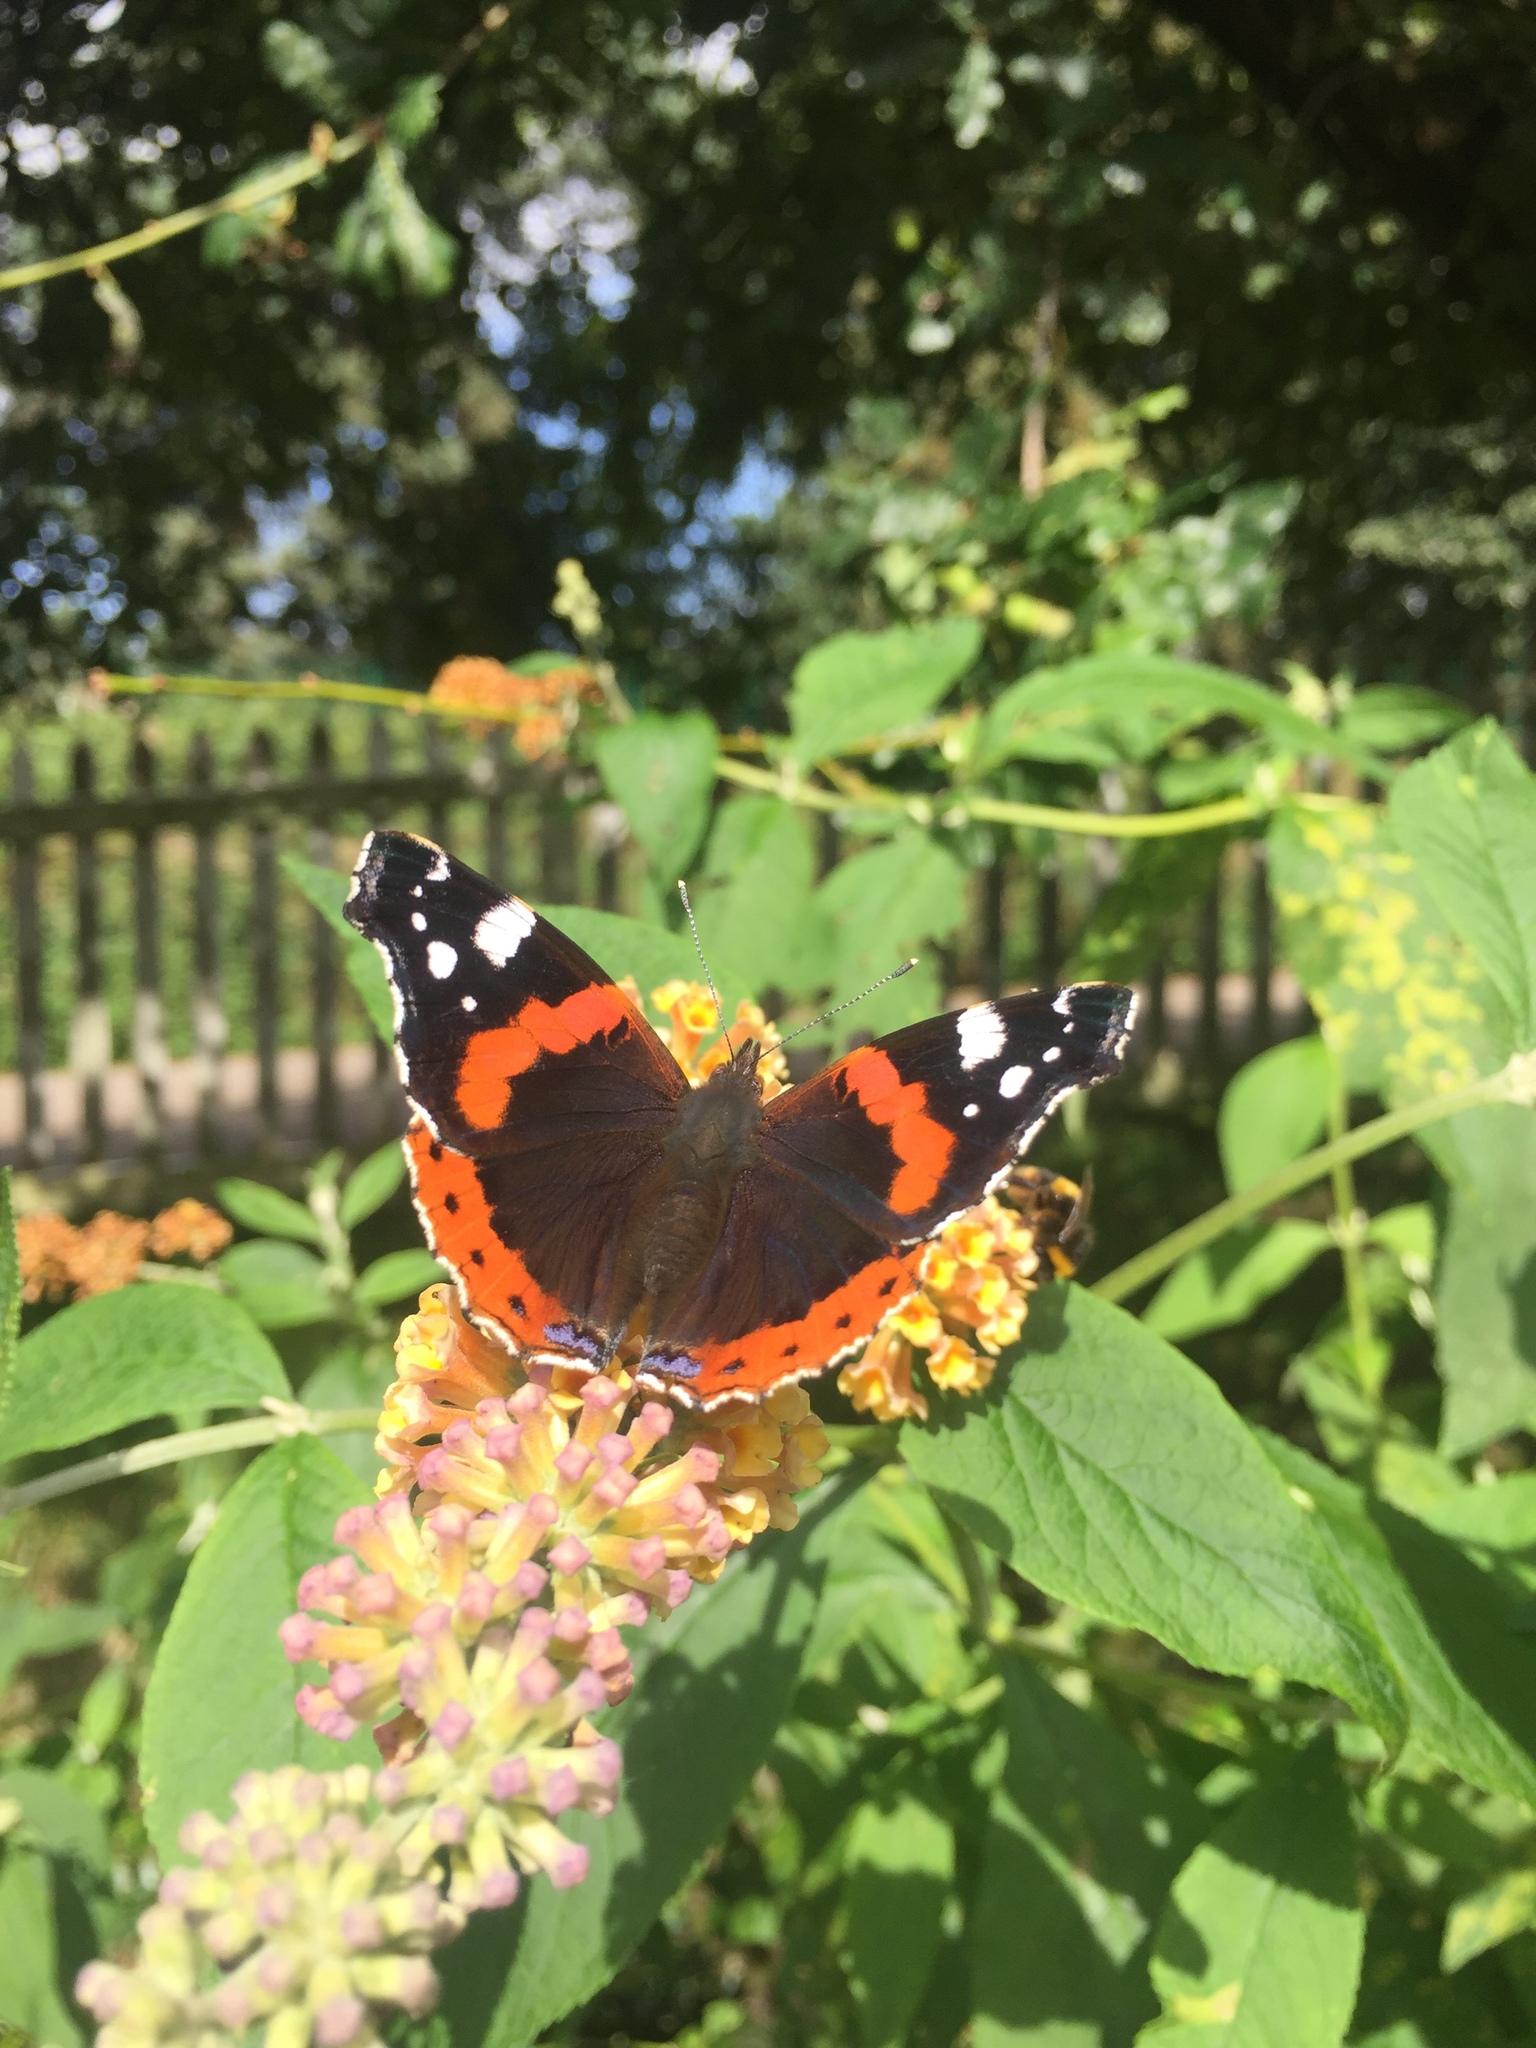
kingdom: Animalia
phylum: Arthropoda
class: Insecta
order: Lepidoptera
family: Nymphalidae
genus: Vanessa
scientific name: Vanessa atalanta
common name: Red admiral
